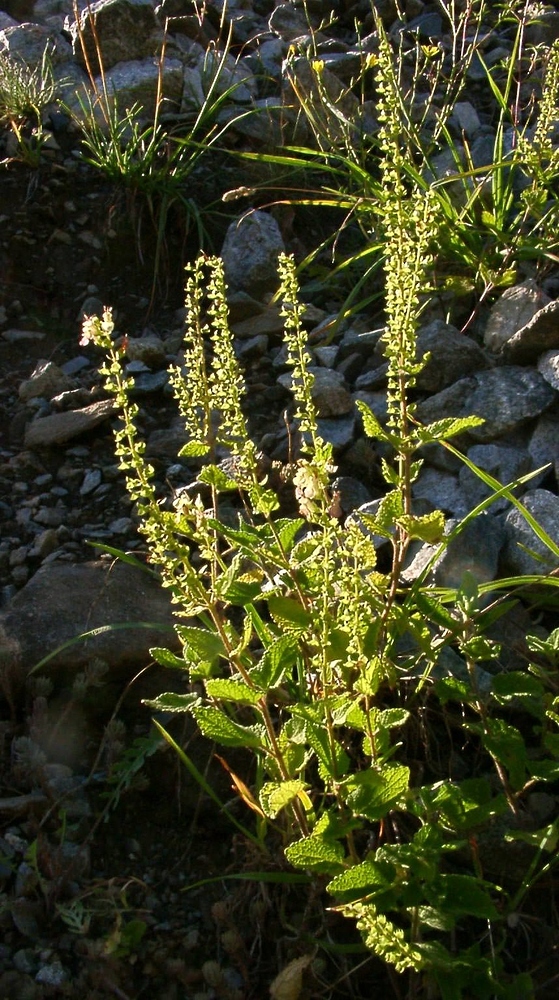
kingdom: Plantae
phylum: Tracheophyta
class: Magnoliopsida
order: Lamiales
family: Lamiaceae
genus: Teucrium
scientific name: Teucrium scorodonia
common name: Woodland germander
